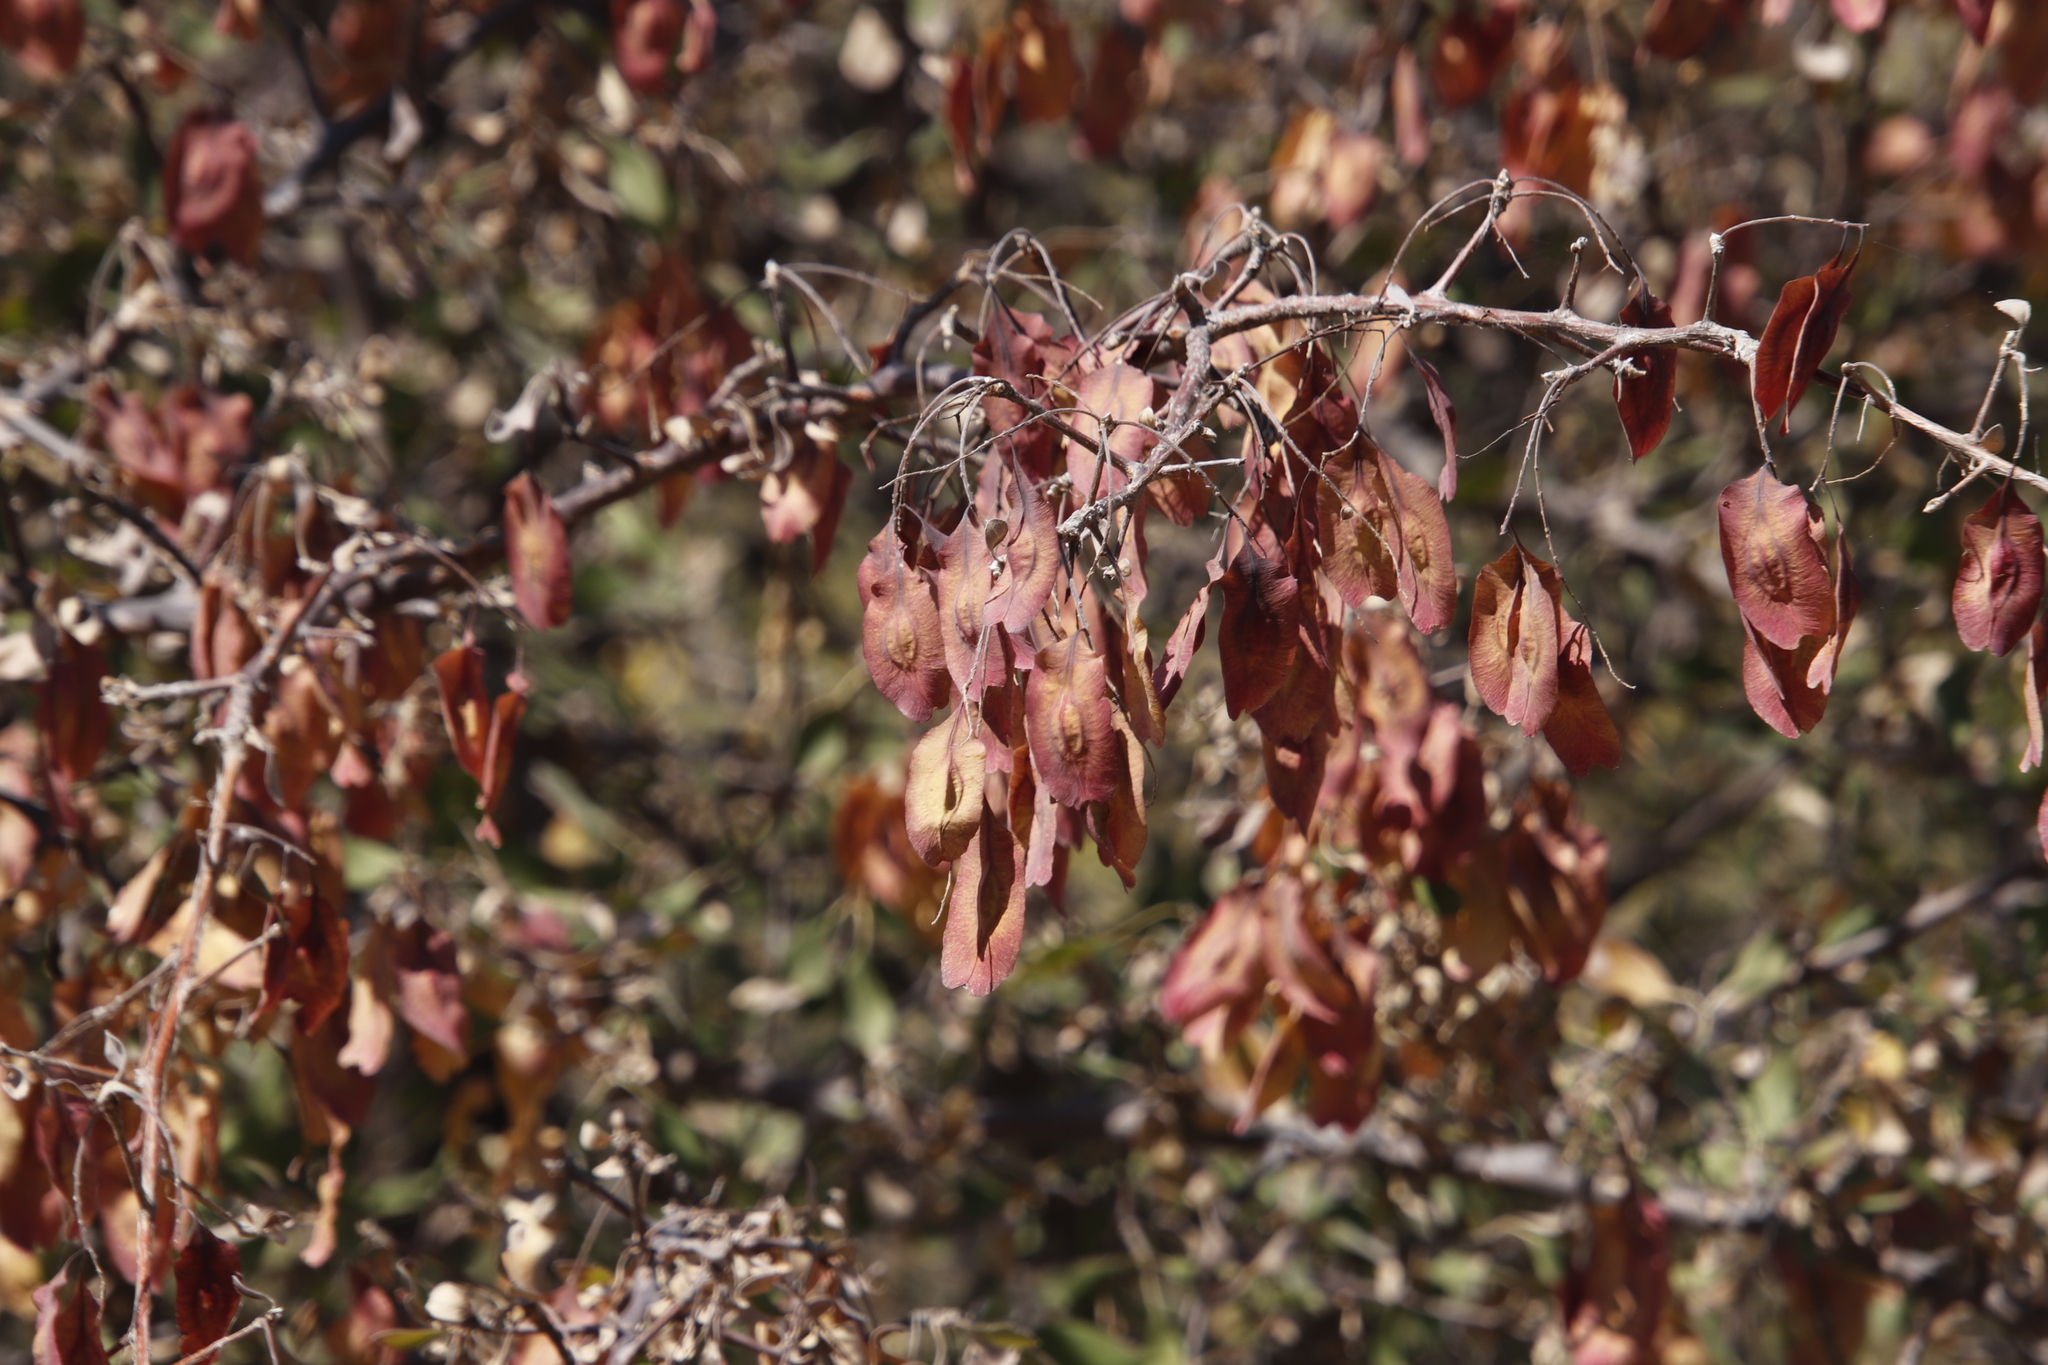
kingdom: Plantae
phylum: Tracheophyta
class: Magnoliopsida
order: Myrtales
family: Combretaceae
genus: Terminalia
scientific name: Terminalia prunioides
